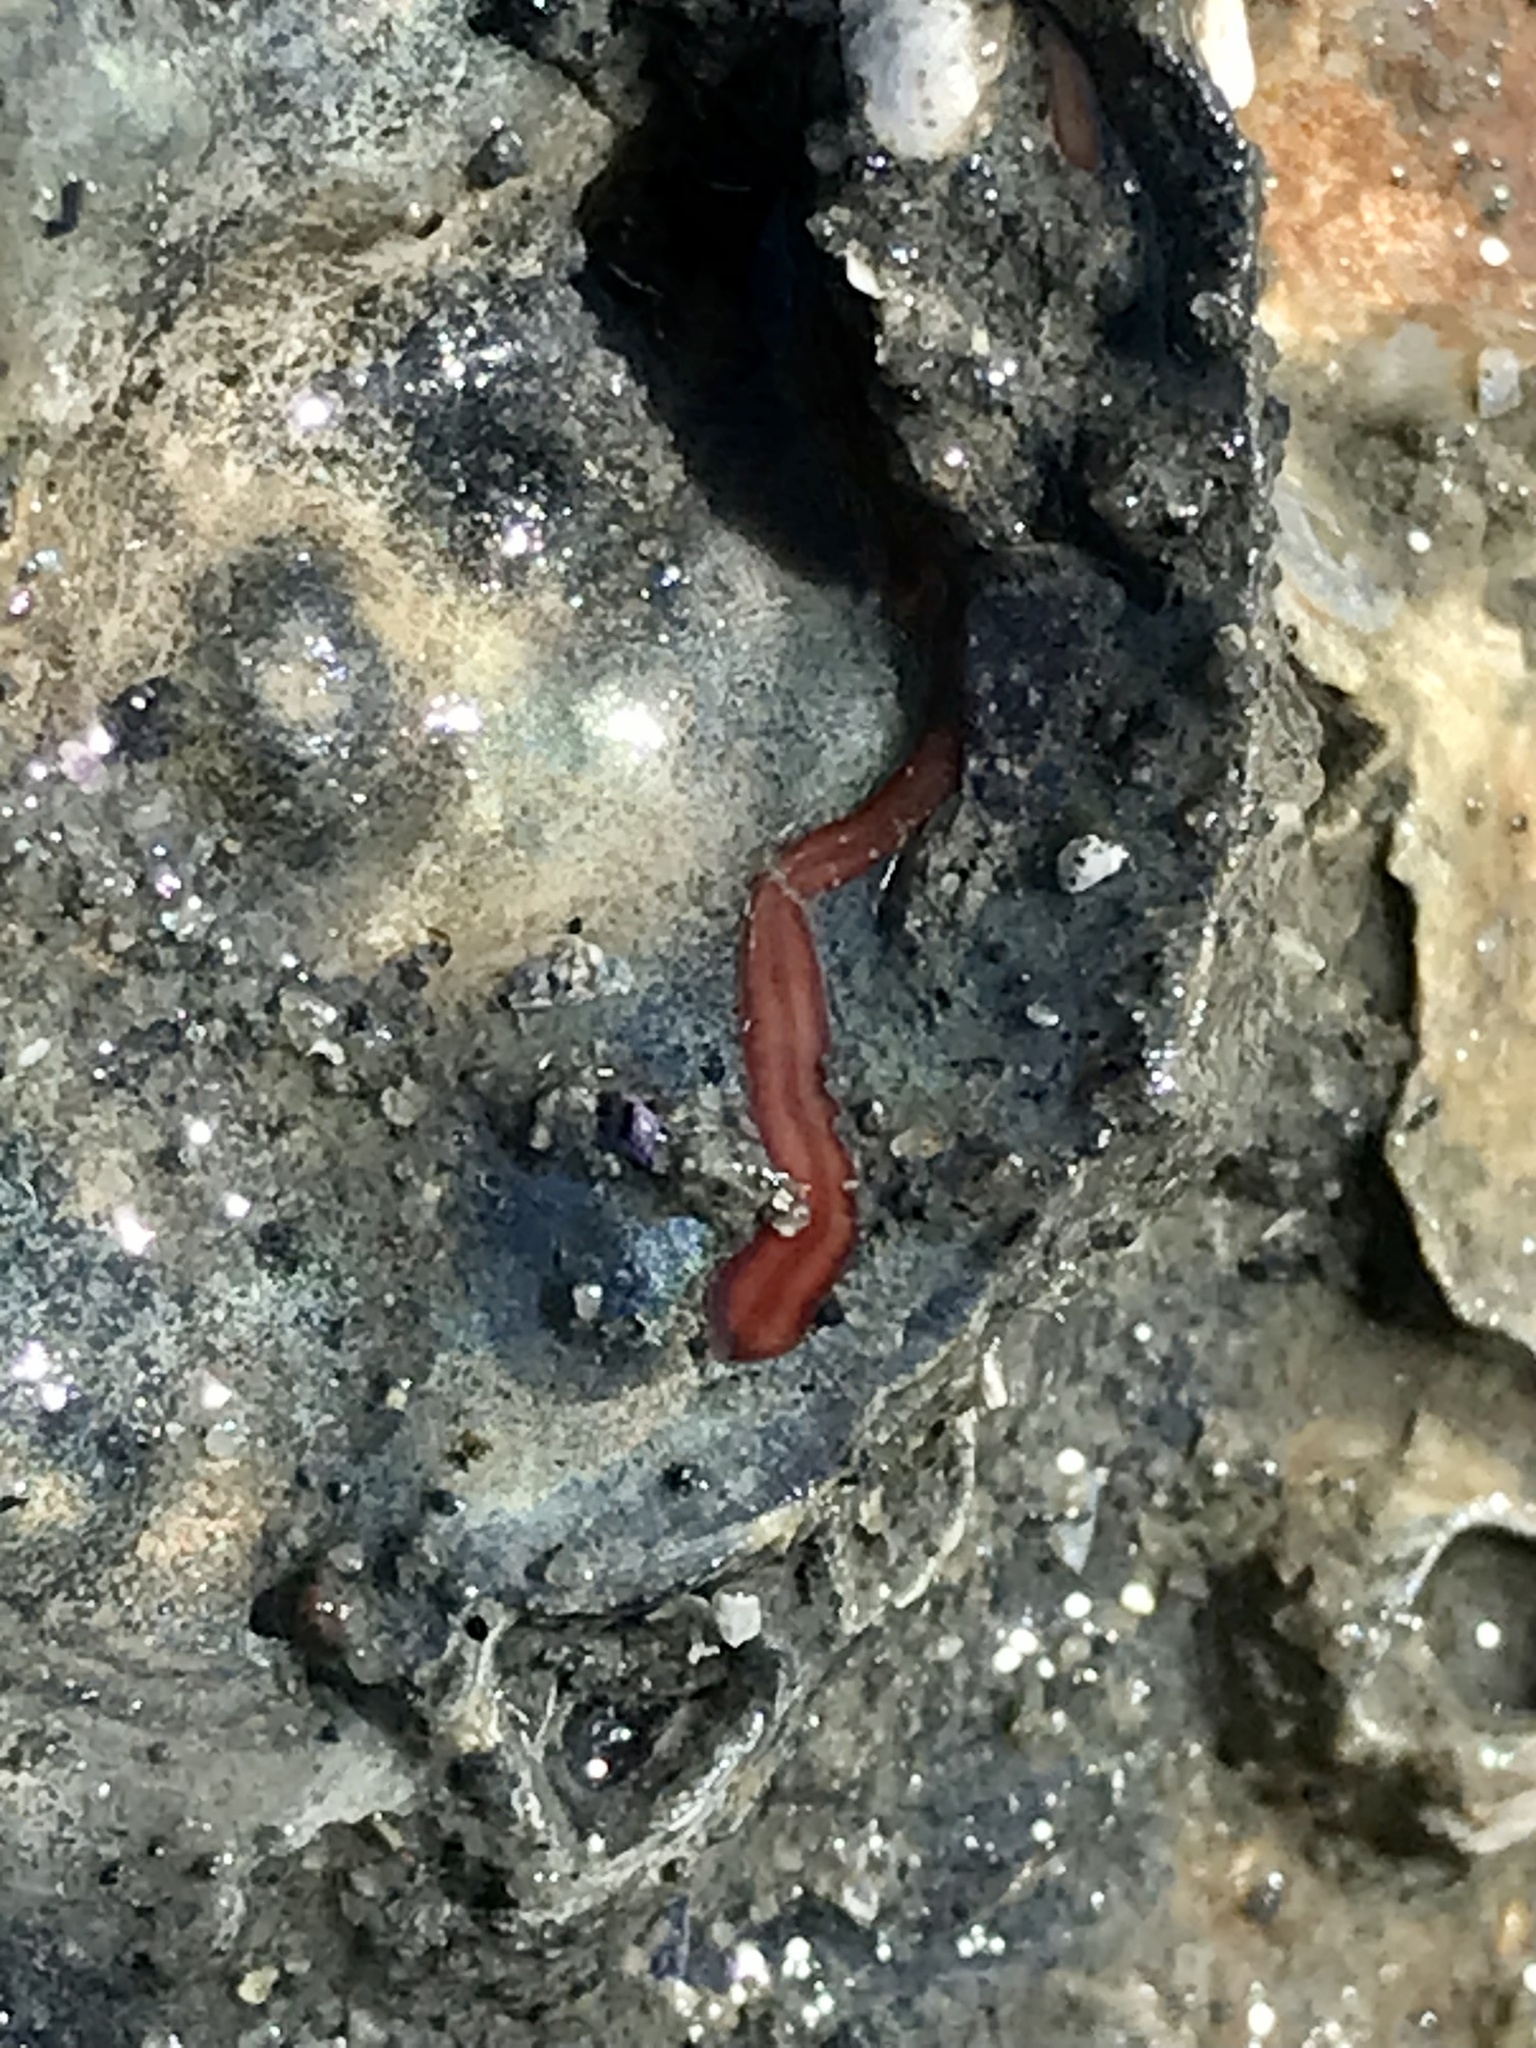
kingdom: Animalia
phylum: Nemertea
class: Hoplonemertea
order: Monostilifera
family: Neesiidae
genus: Paranemertes
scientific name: Paranemertes peregrina
